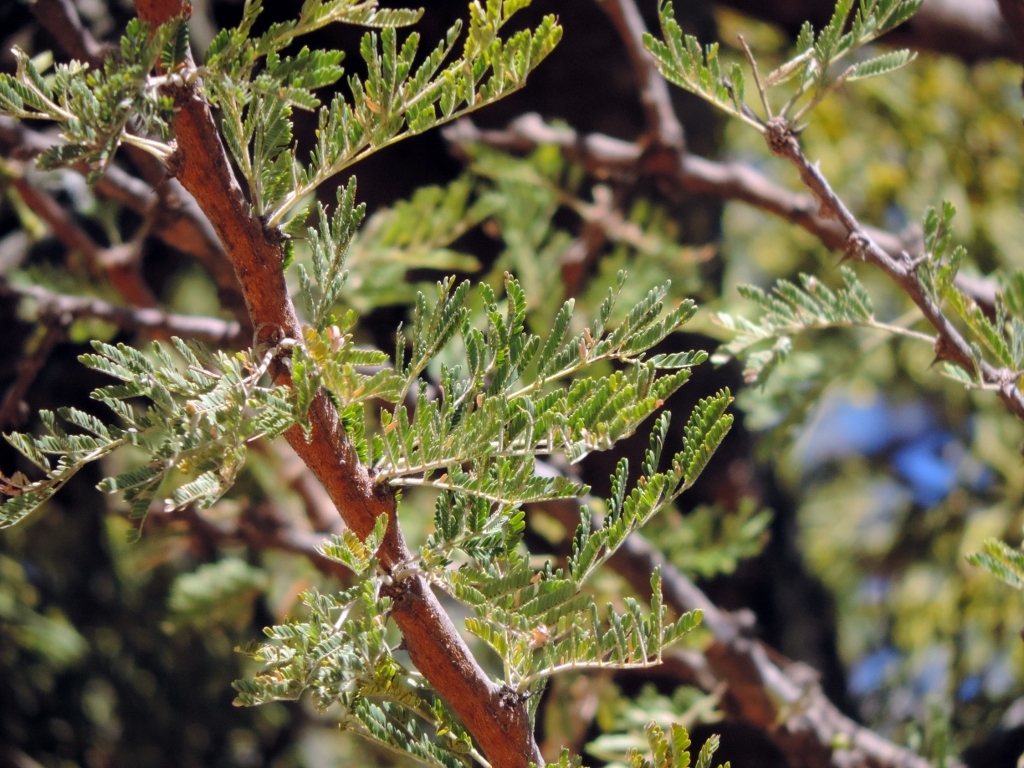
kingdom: Plantae
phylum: Tracheophyta
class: Magnoliopsida
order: Fabales
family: Fabaceae
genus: Vachellia
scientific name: Vachellia karroo
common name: Sweet thorn
